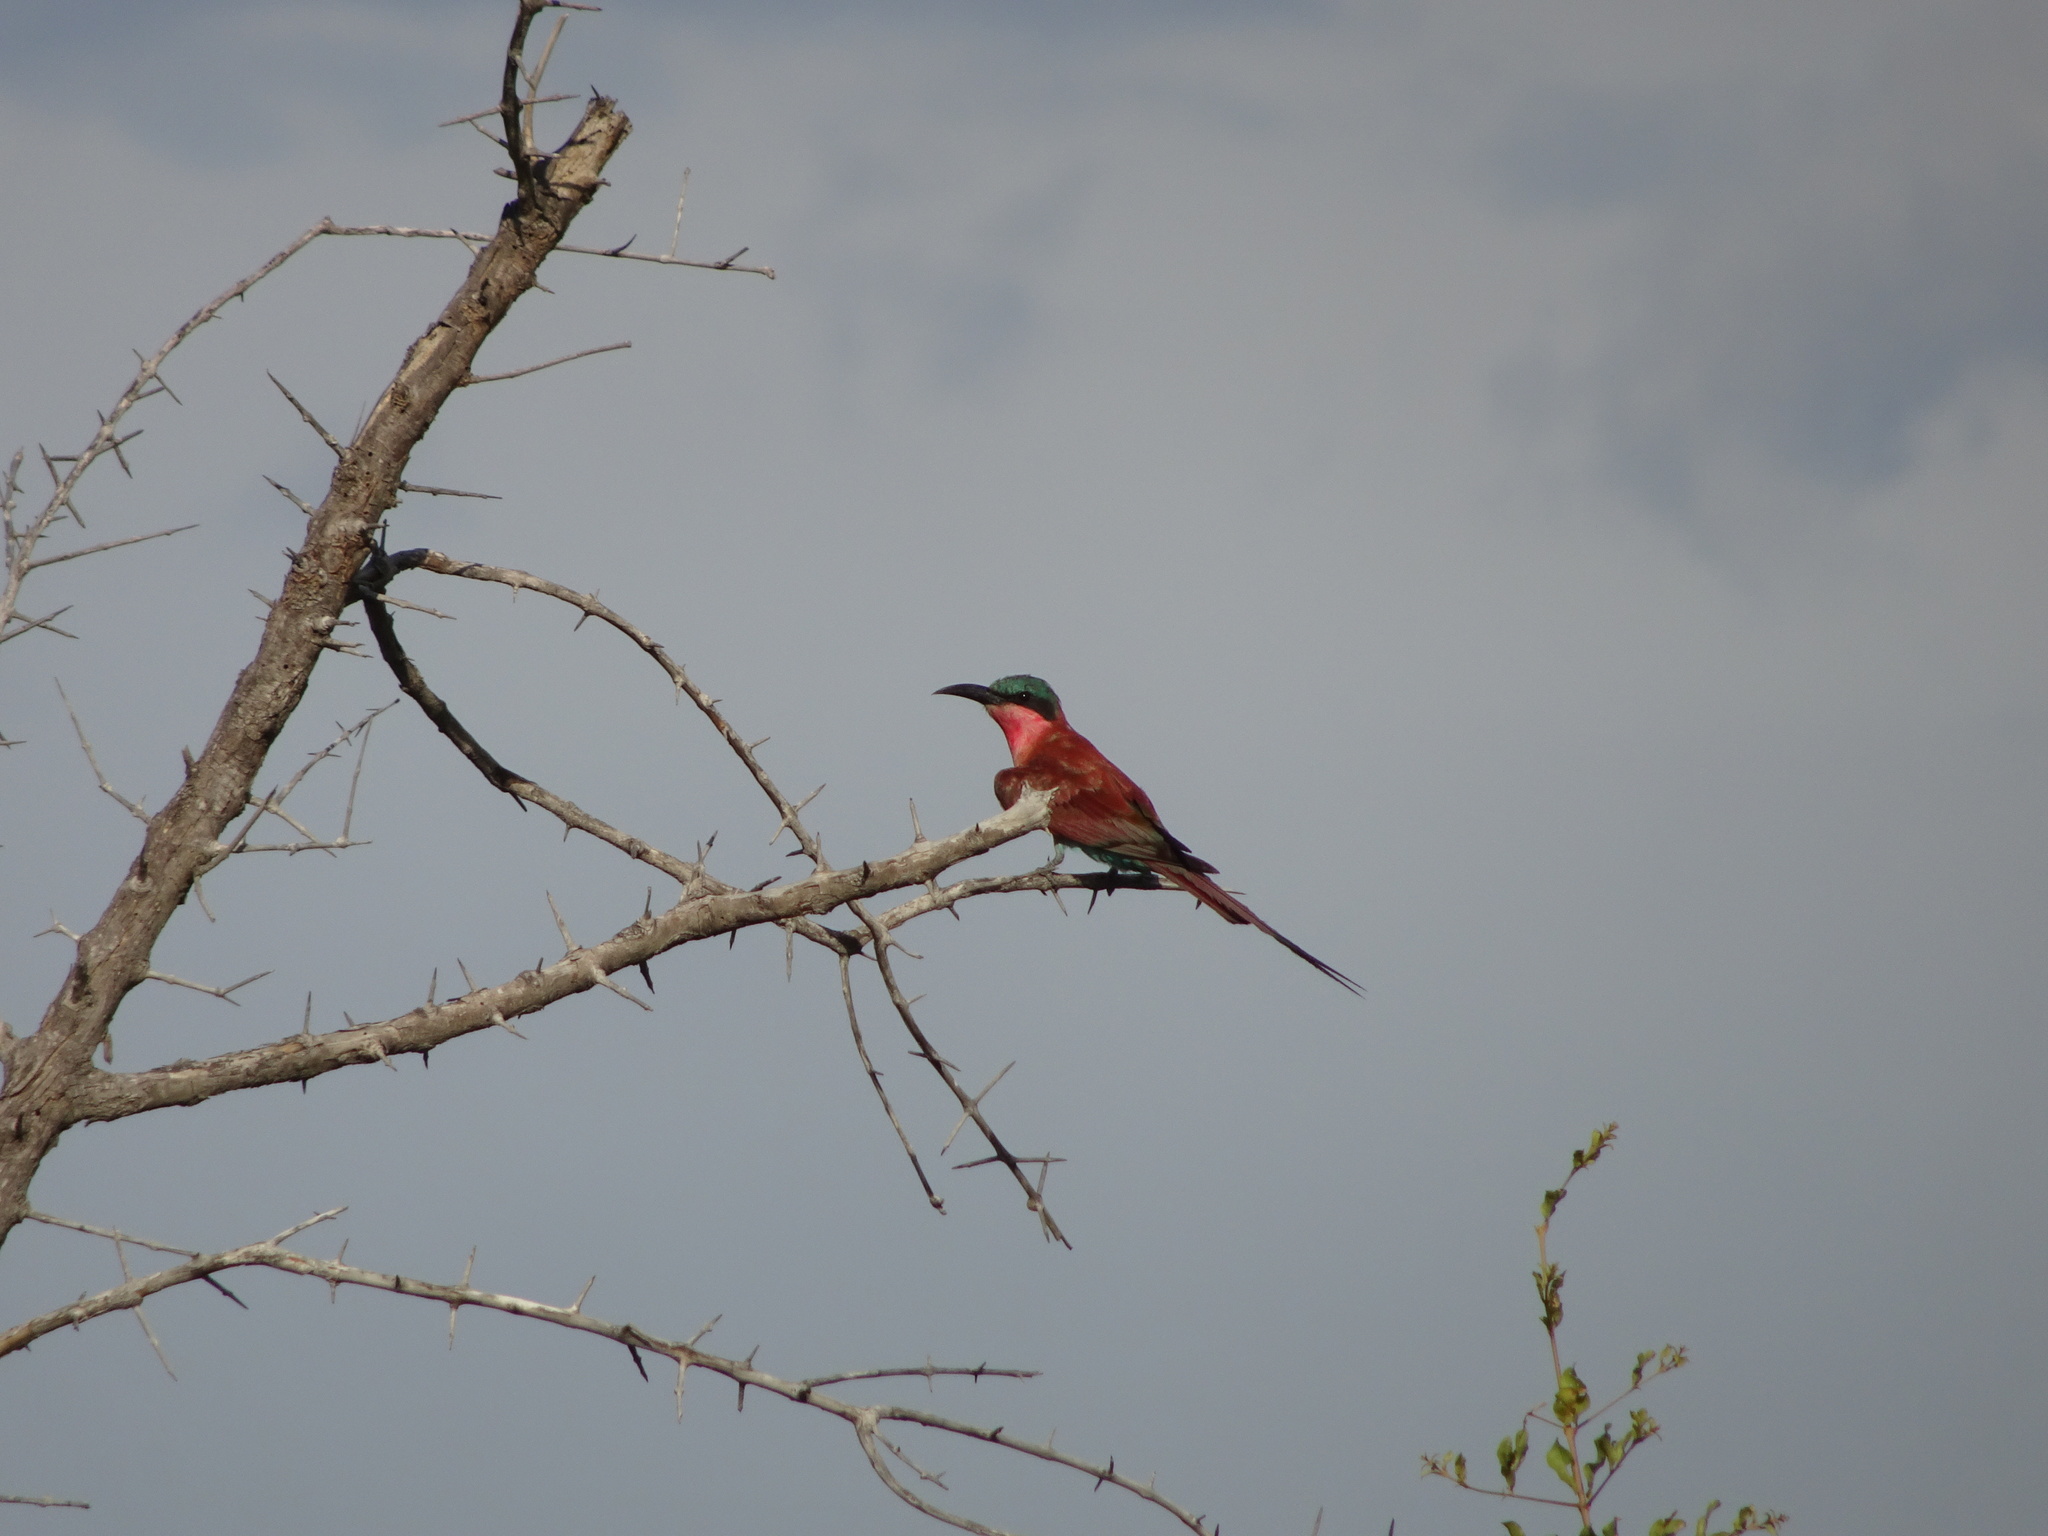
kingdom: Animalia
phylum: Chordata
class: Aves
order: Coraciiformes
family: Meropidae
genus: Merops
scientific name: Merops nubicoides
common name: Southern carmine bee-eater
